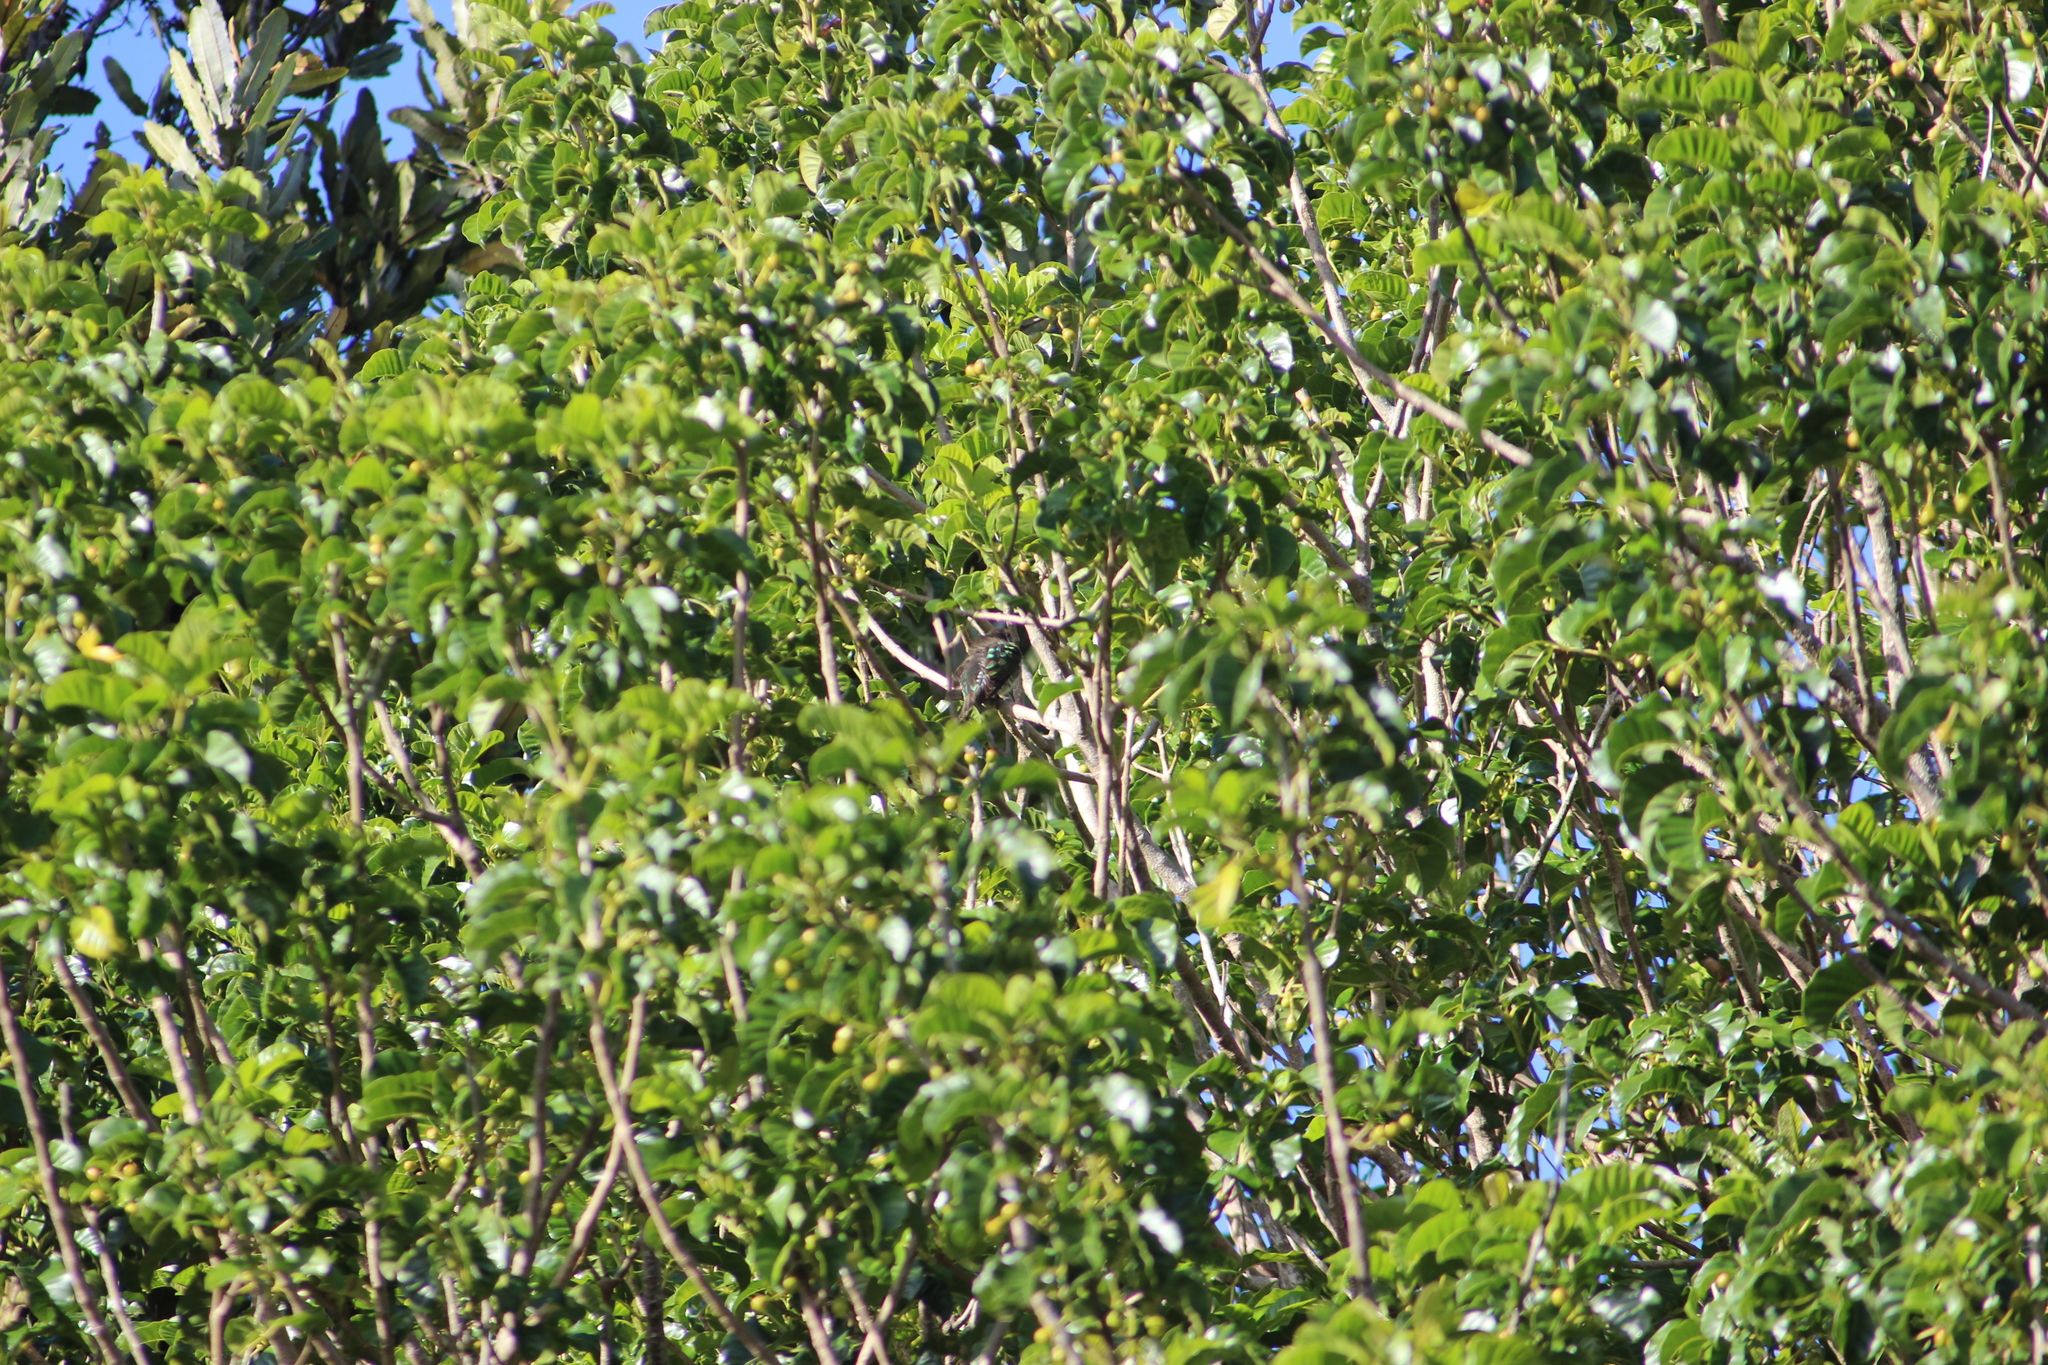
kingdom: Animalia
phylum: Chordata
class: Aves
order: Cuculiformes
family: Cuculidae
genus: Chrysococcyx
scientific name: Chrysococcyx lucidus
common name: Shining bronze cuckoo
